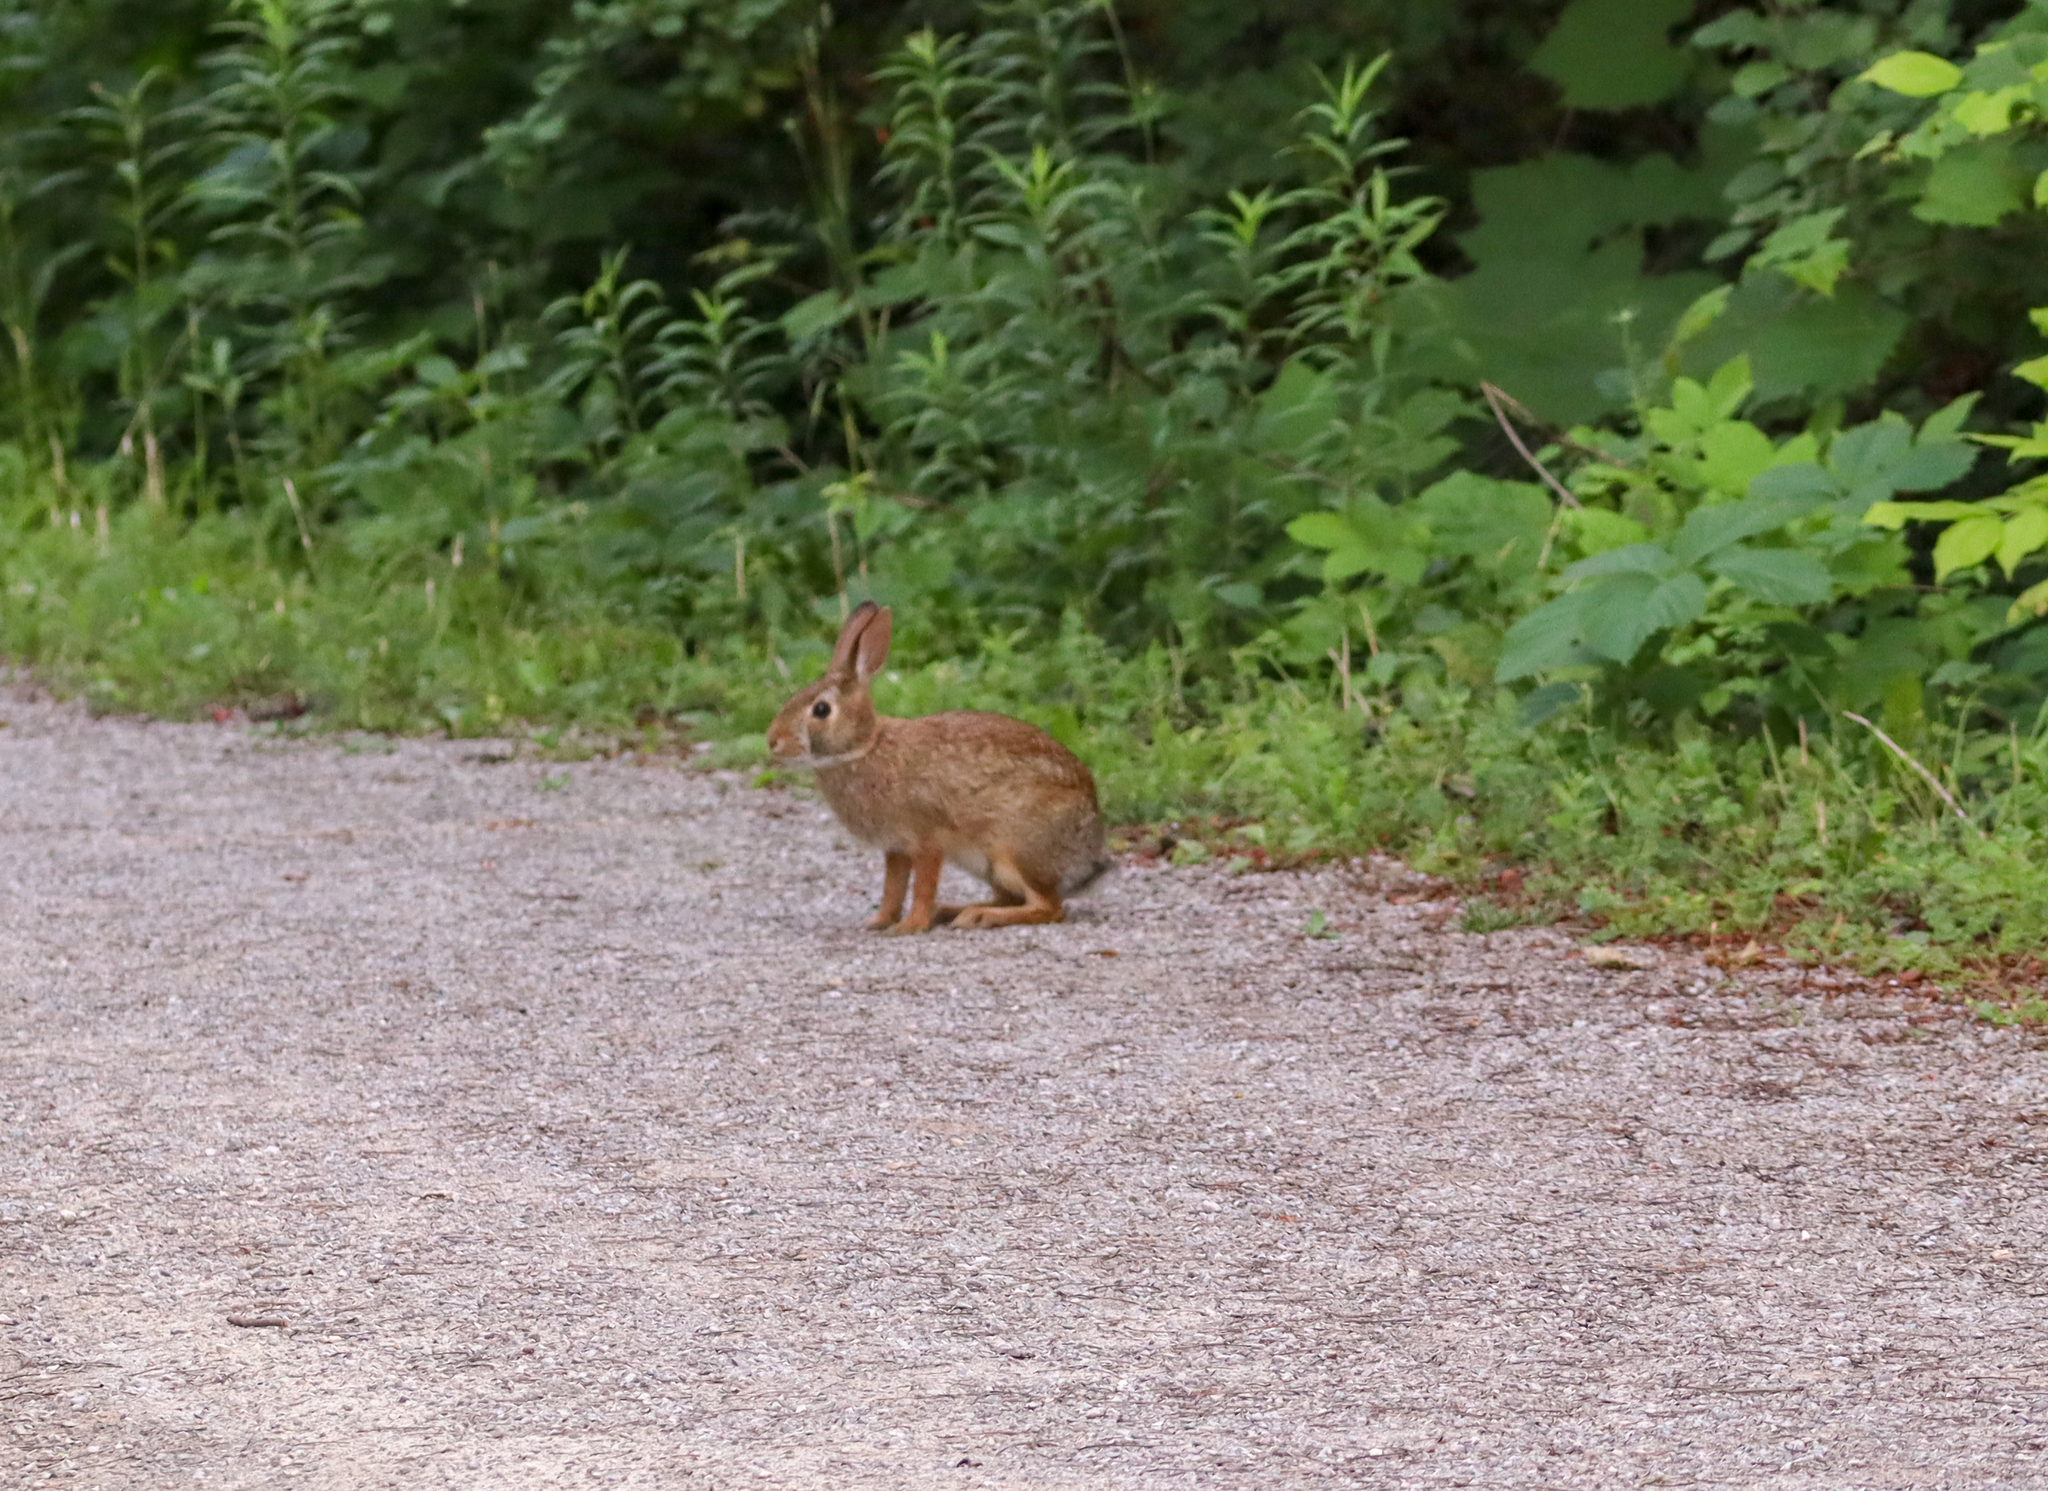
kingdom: Animalia
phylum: Chordata
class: Mammalia
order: Lagomorpha
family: Leporidae
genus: Sylvilagus
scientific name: Sylvilagus floridanus
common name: Eastern cottontail
